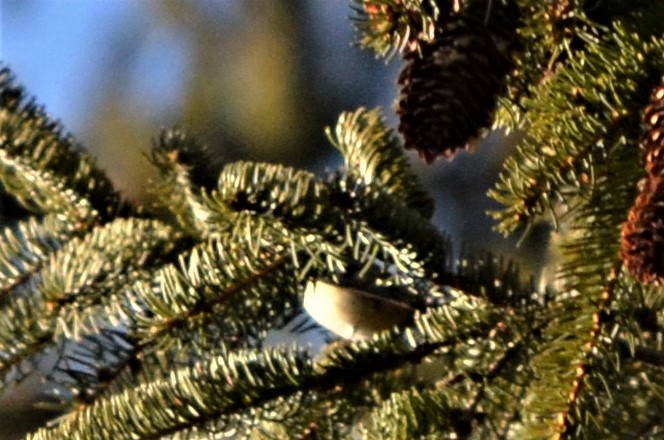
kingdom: Animalia
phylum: Chordata
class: Aves
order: Passeriformes
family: Regulidae
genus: Regulus
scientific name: Regulus regulus
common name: Goldcrest
